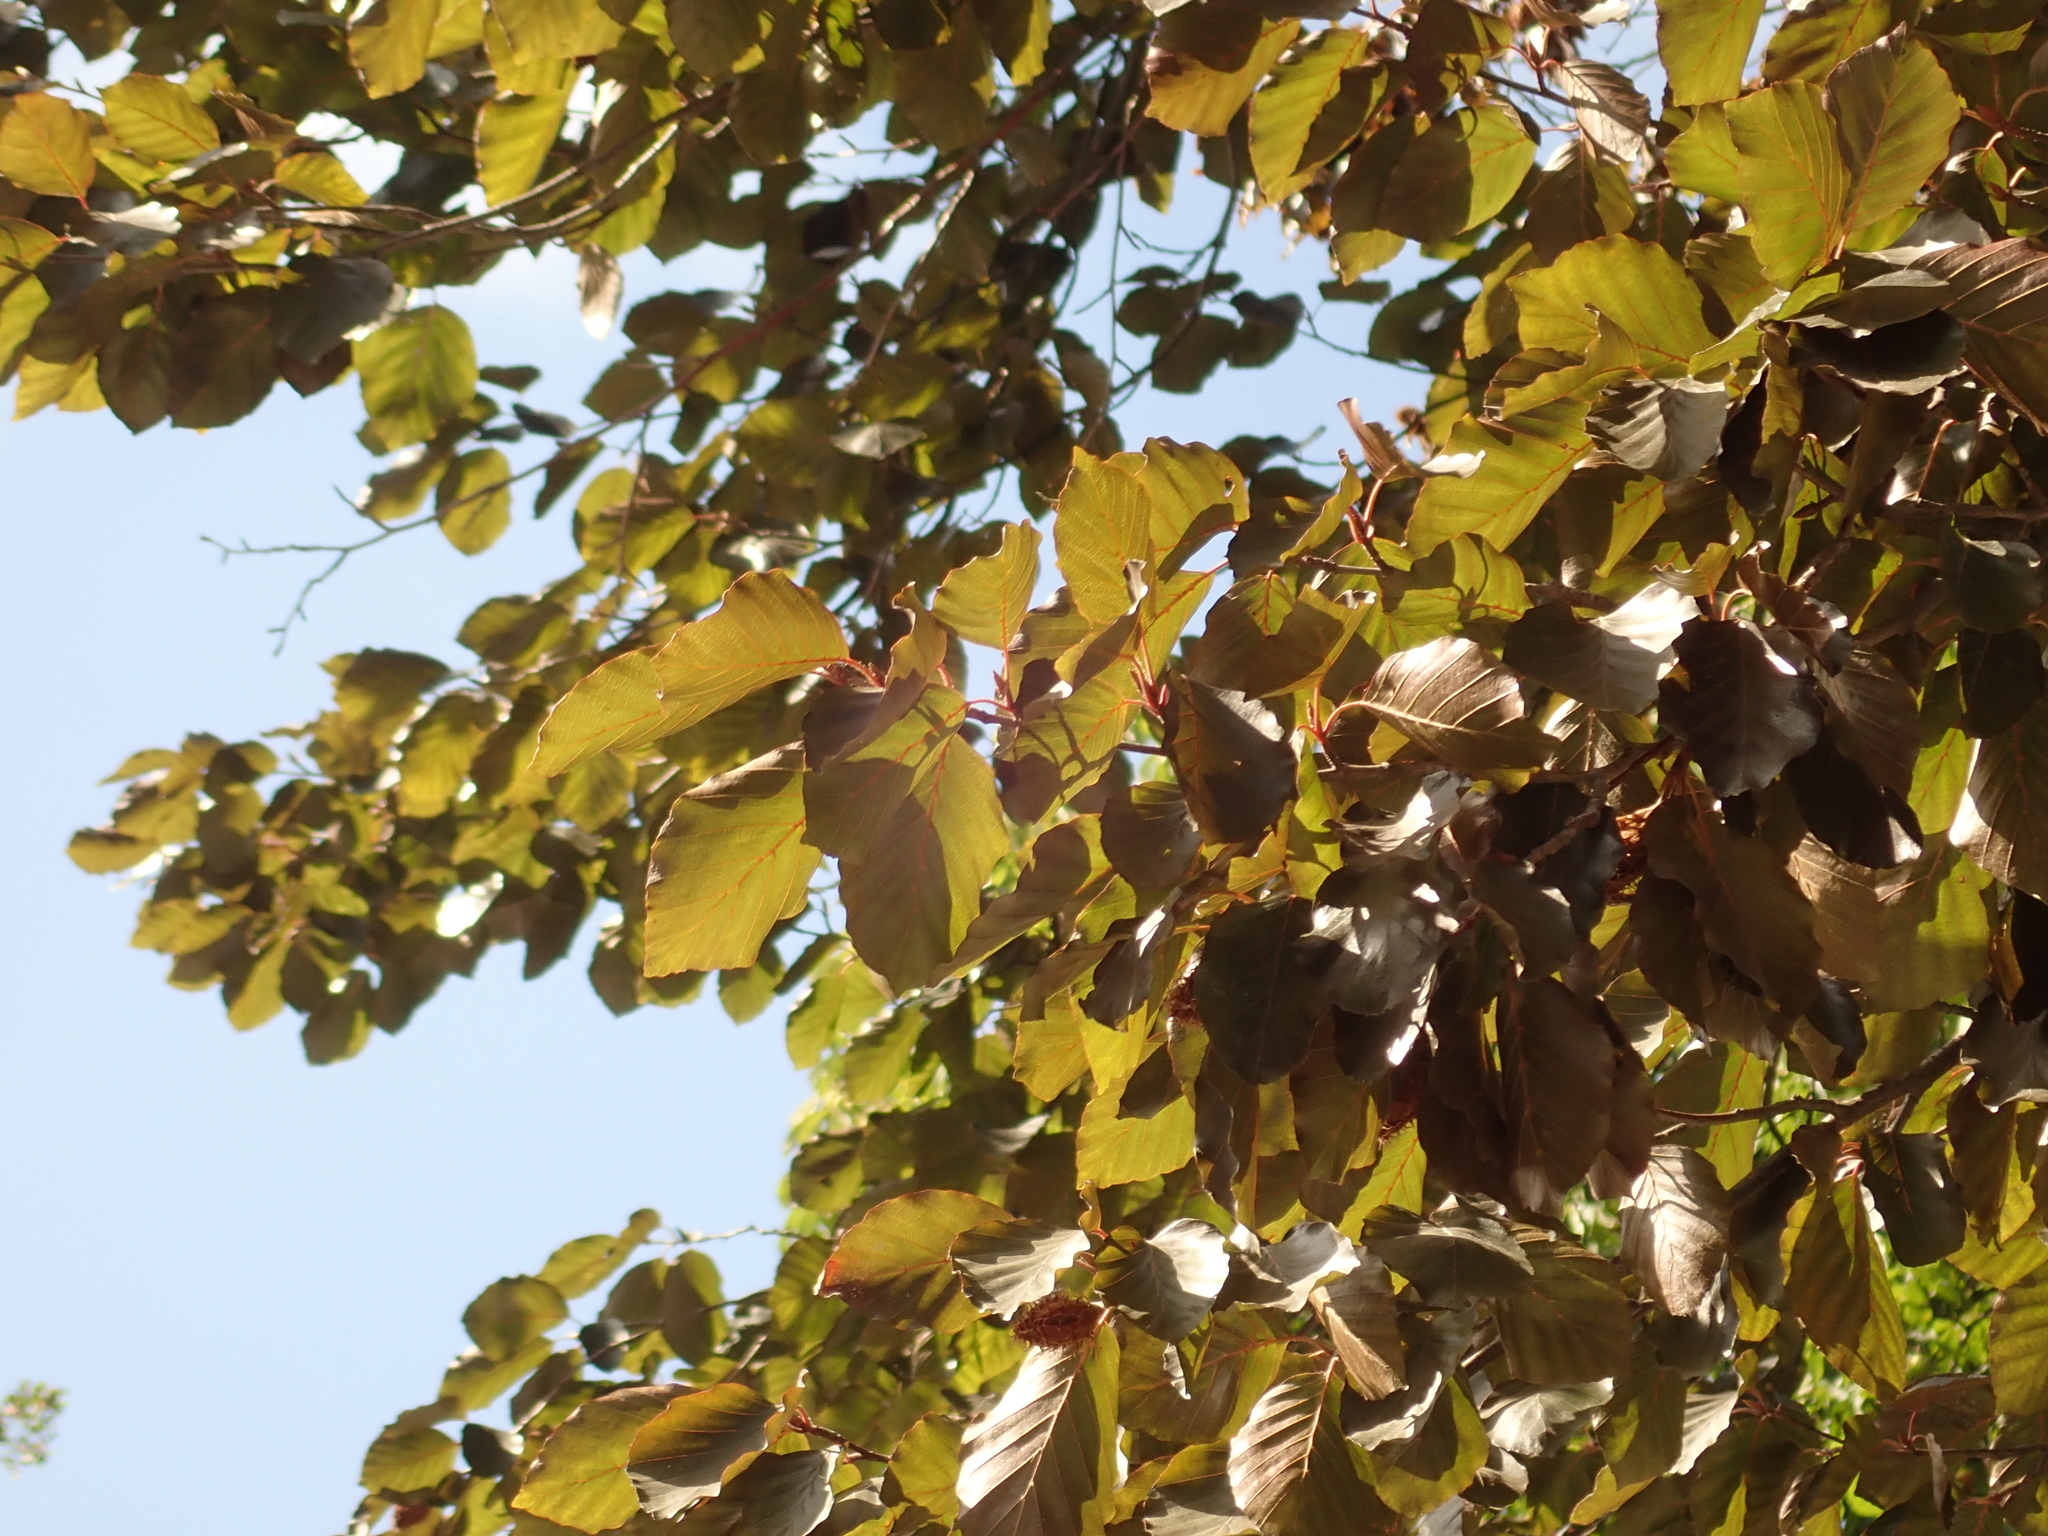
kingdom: Plantae
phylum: Tracheophyta
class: Magnoliopsida
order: Fagales
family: Fagaceae
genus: Fagus
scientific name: Fagus sylvatica
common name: Beech
